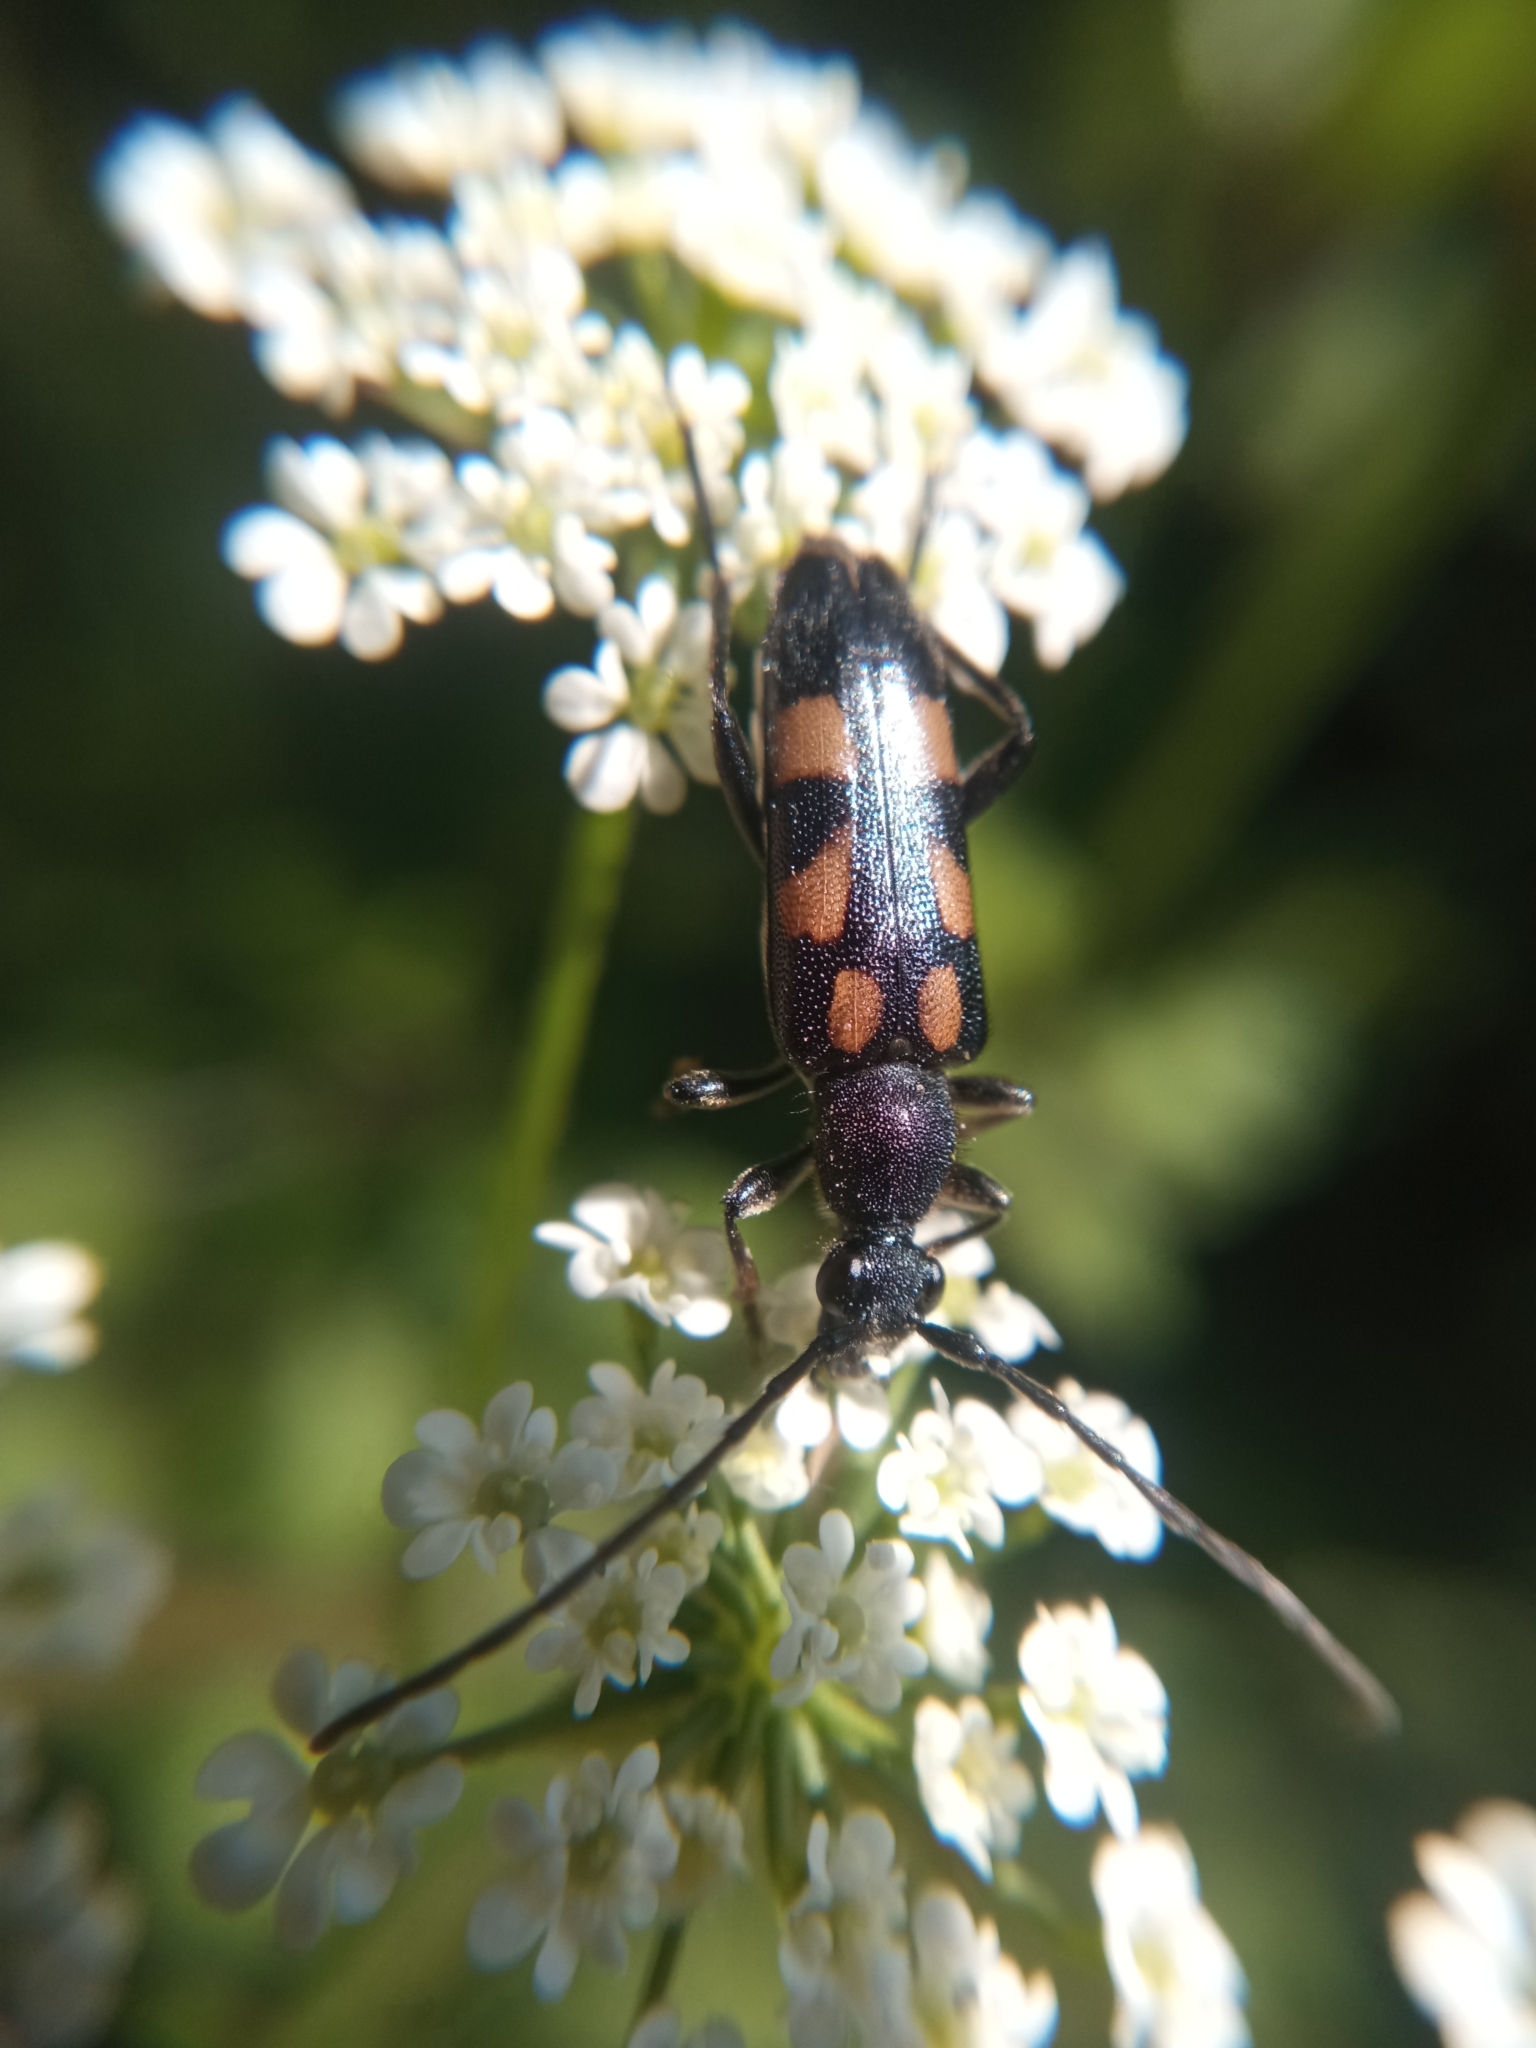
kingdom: Animalia
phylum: Arthropoda
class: Insecta
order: Coleoptera
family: Cerambycidae
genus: Anoplodera
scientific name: Anoplodera sexguttata
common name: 6 spotted longhorn
